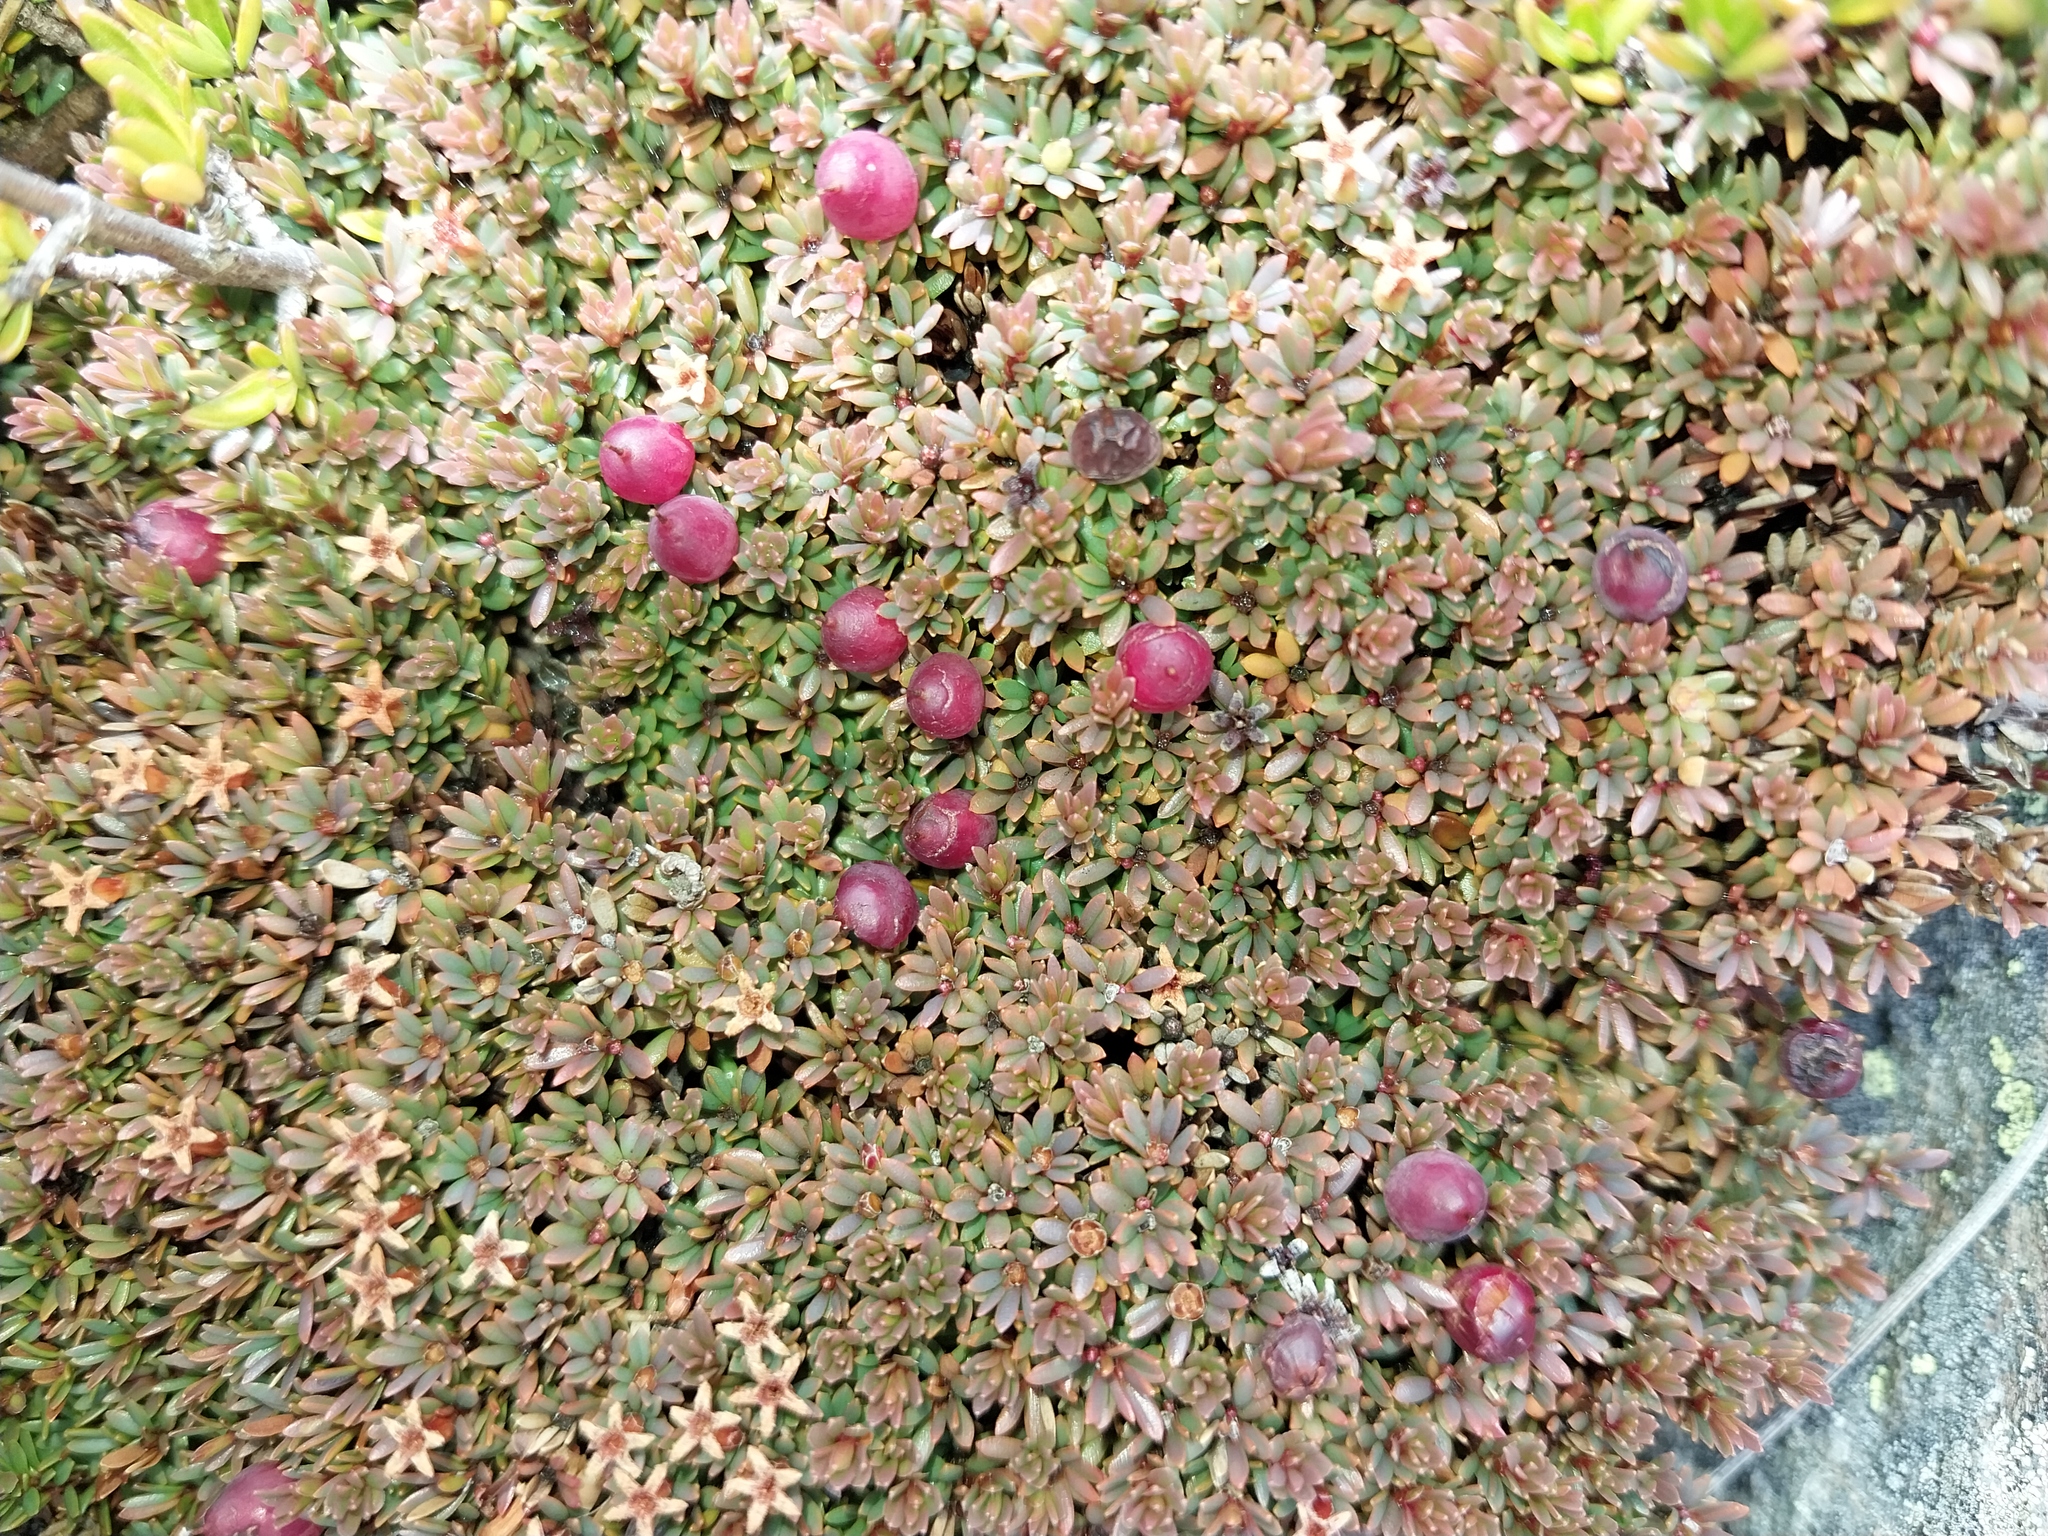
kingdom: Plantae
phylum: Tracheophyta
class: Magnoliopsida
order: Ericales
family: Ericaceae
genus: Pentachondra
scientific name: Pentachondra pumila
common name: Carpet-heath
